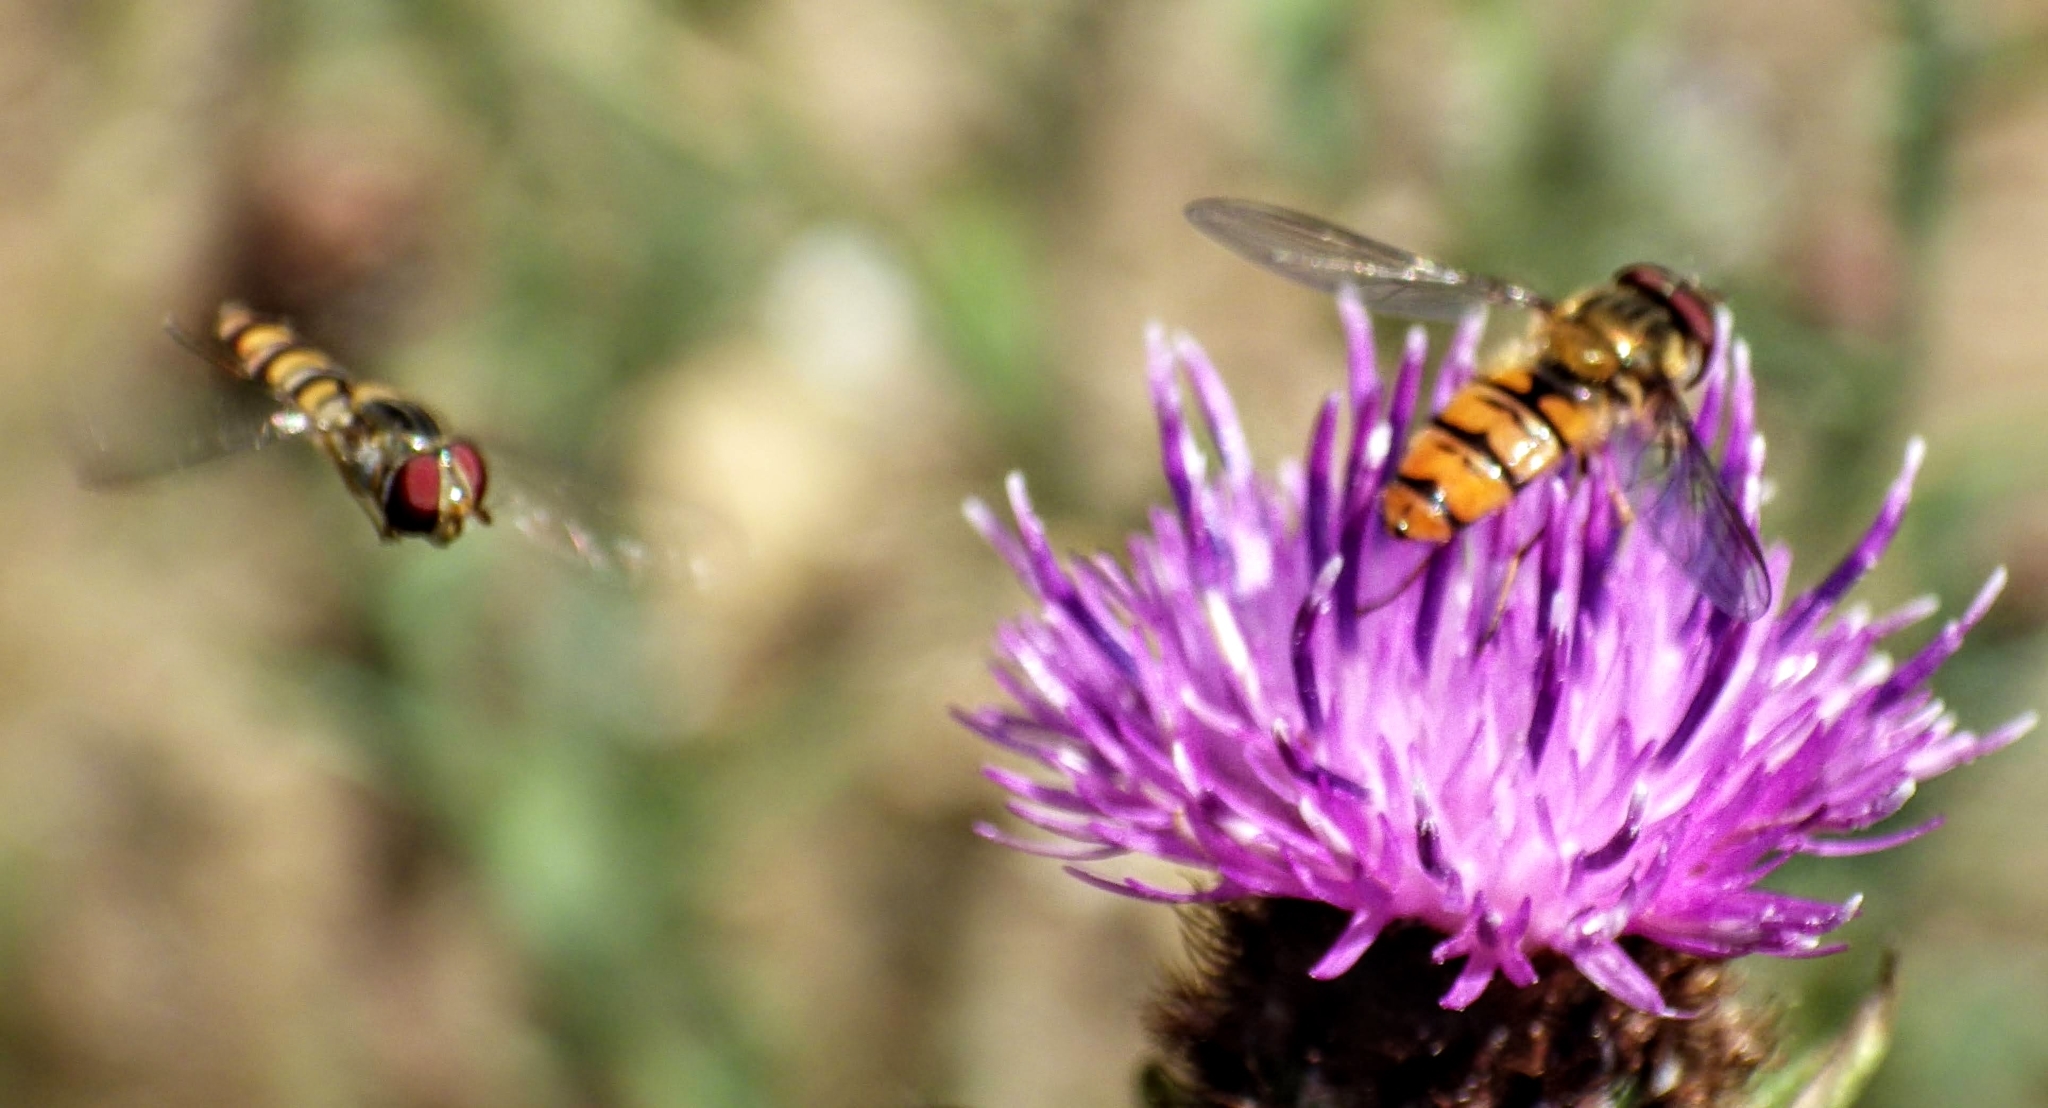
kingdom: Animalia
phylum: Arthropoda
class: Insecta
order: Diptera
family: Syrphidae
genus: Episyrphus
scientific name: Episyrphus balteatus
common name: Marmalade hoverfly
